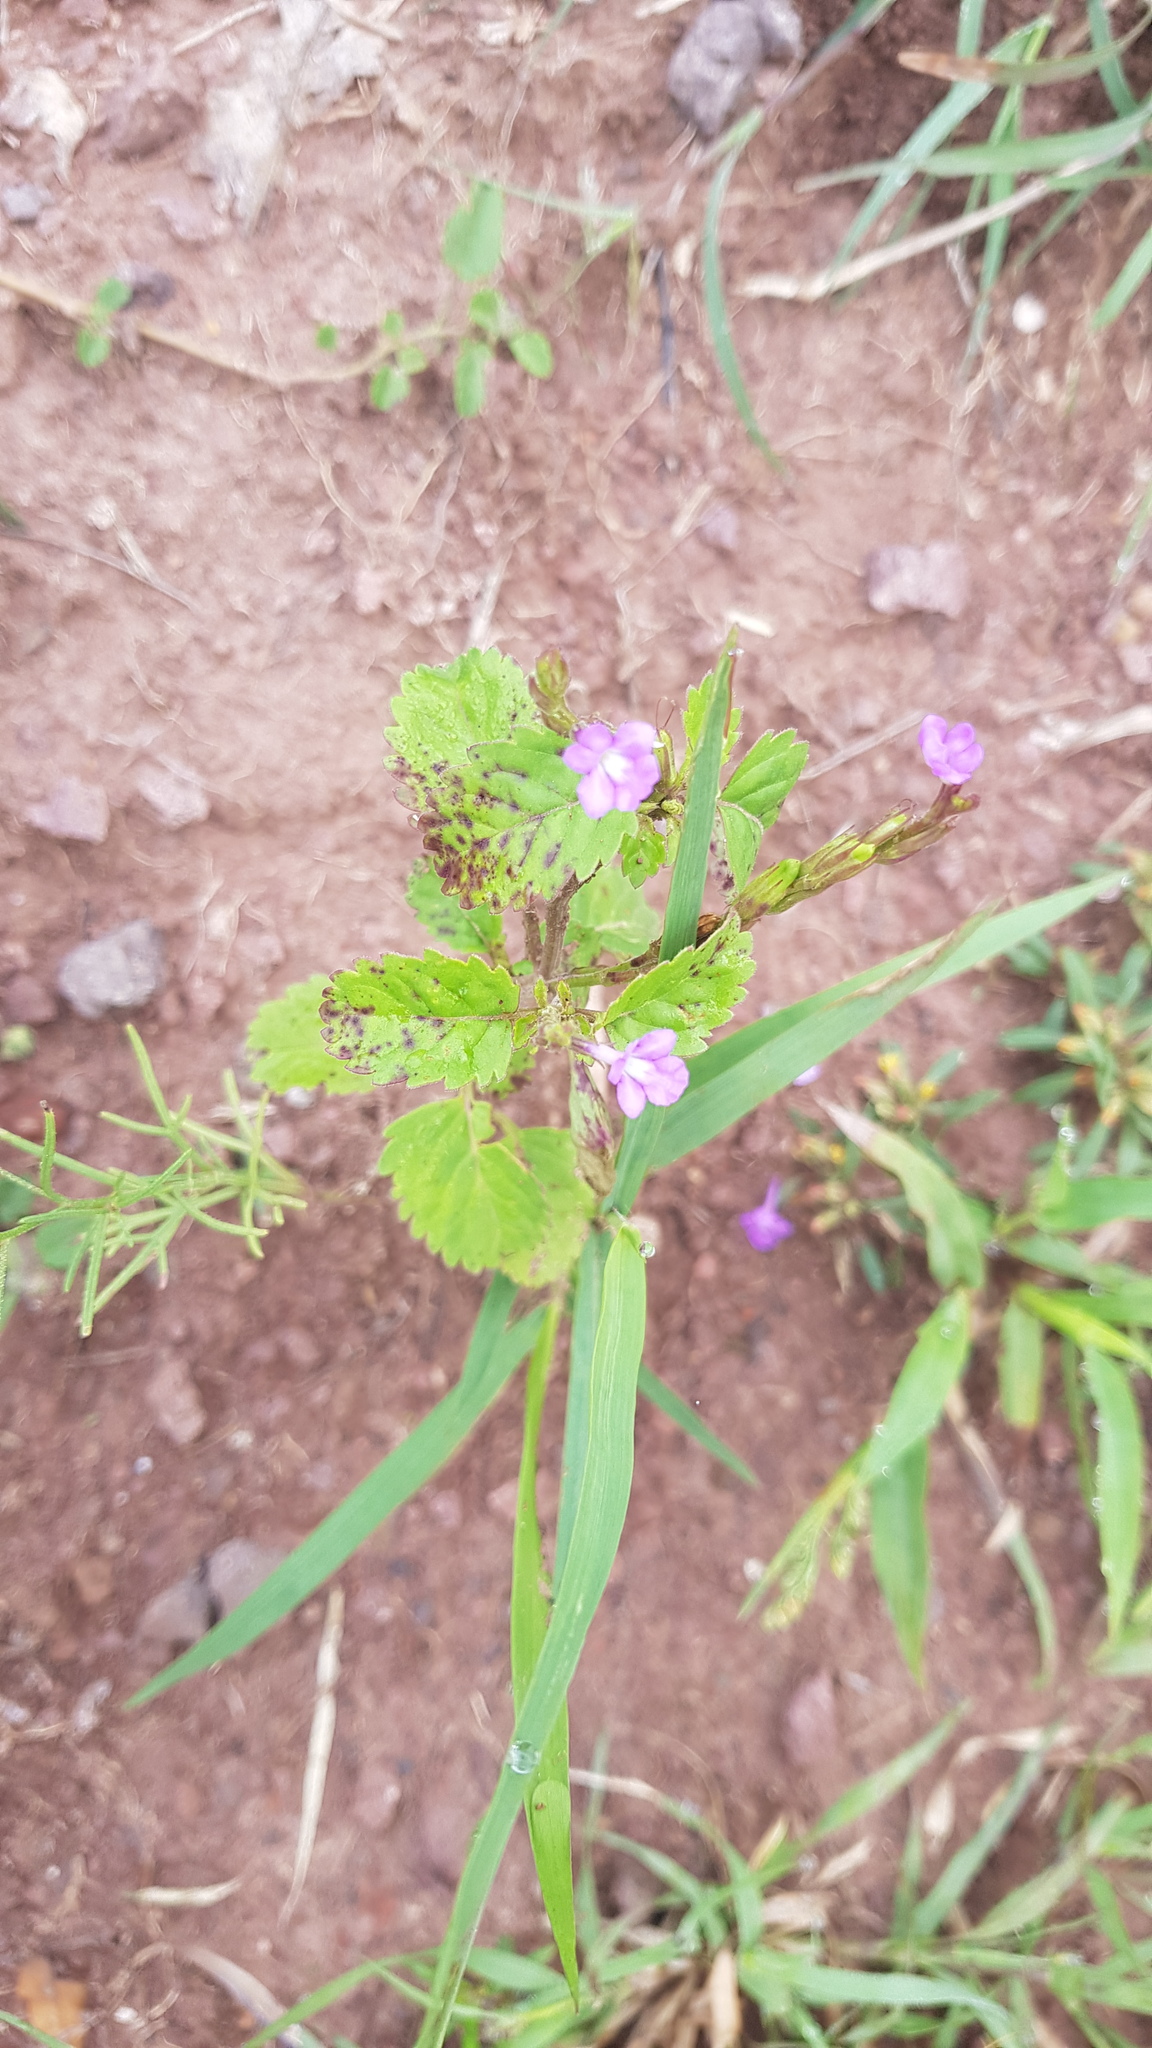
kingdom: Plantae
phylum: Tracheophyta
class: Magnoliopsida
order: Lamiales
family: Verbenaceae
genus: Bouchea
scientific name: Bouchea prismatica
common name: Vervine
